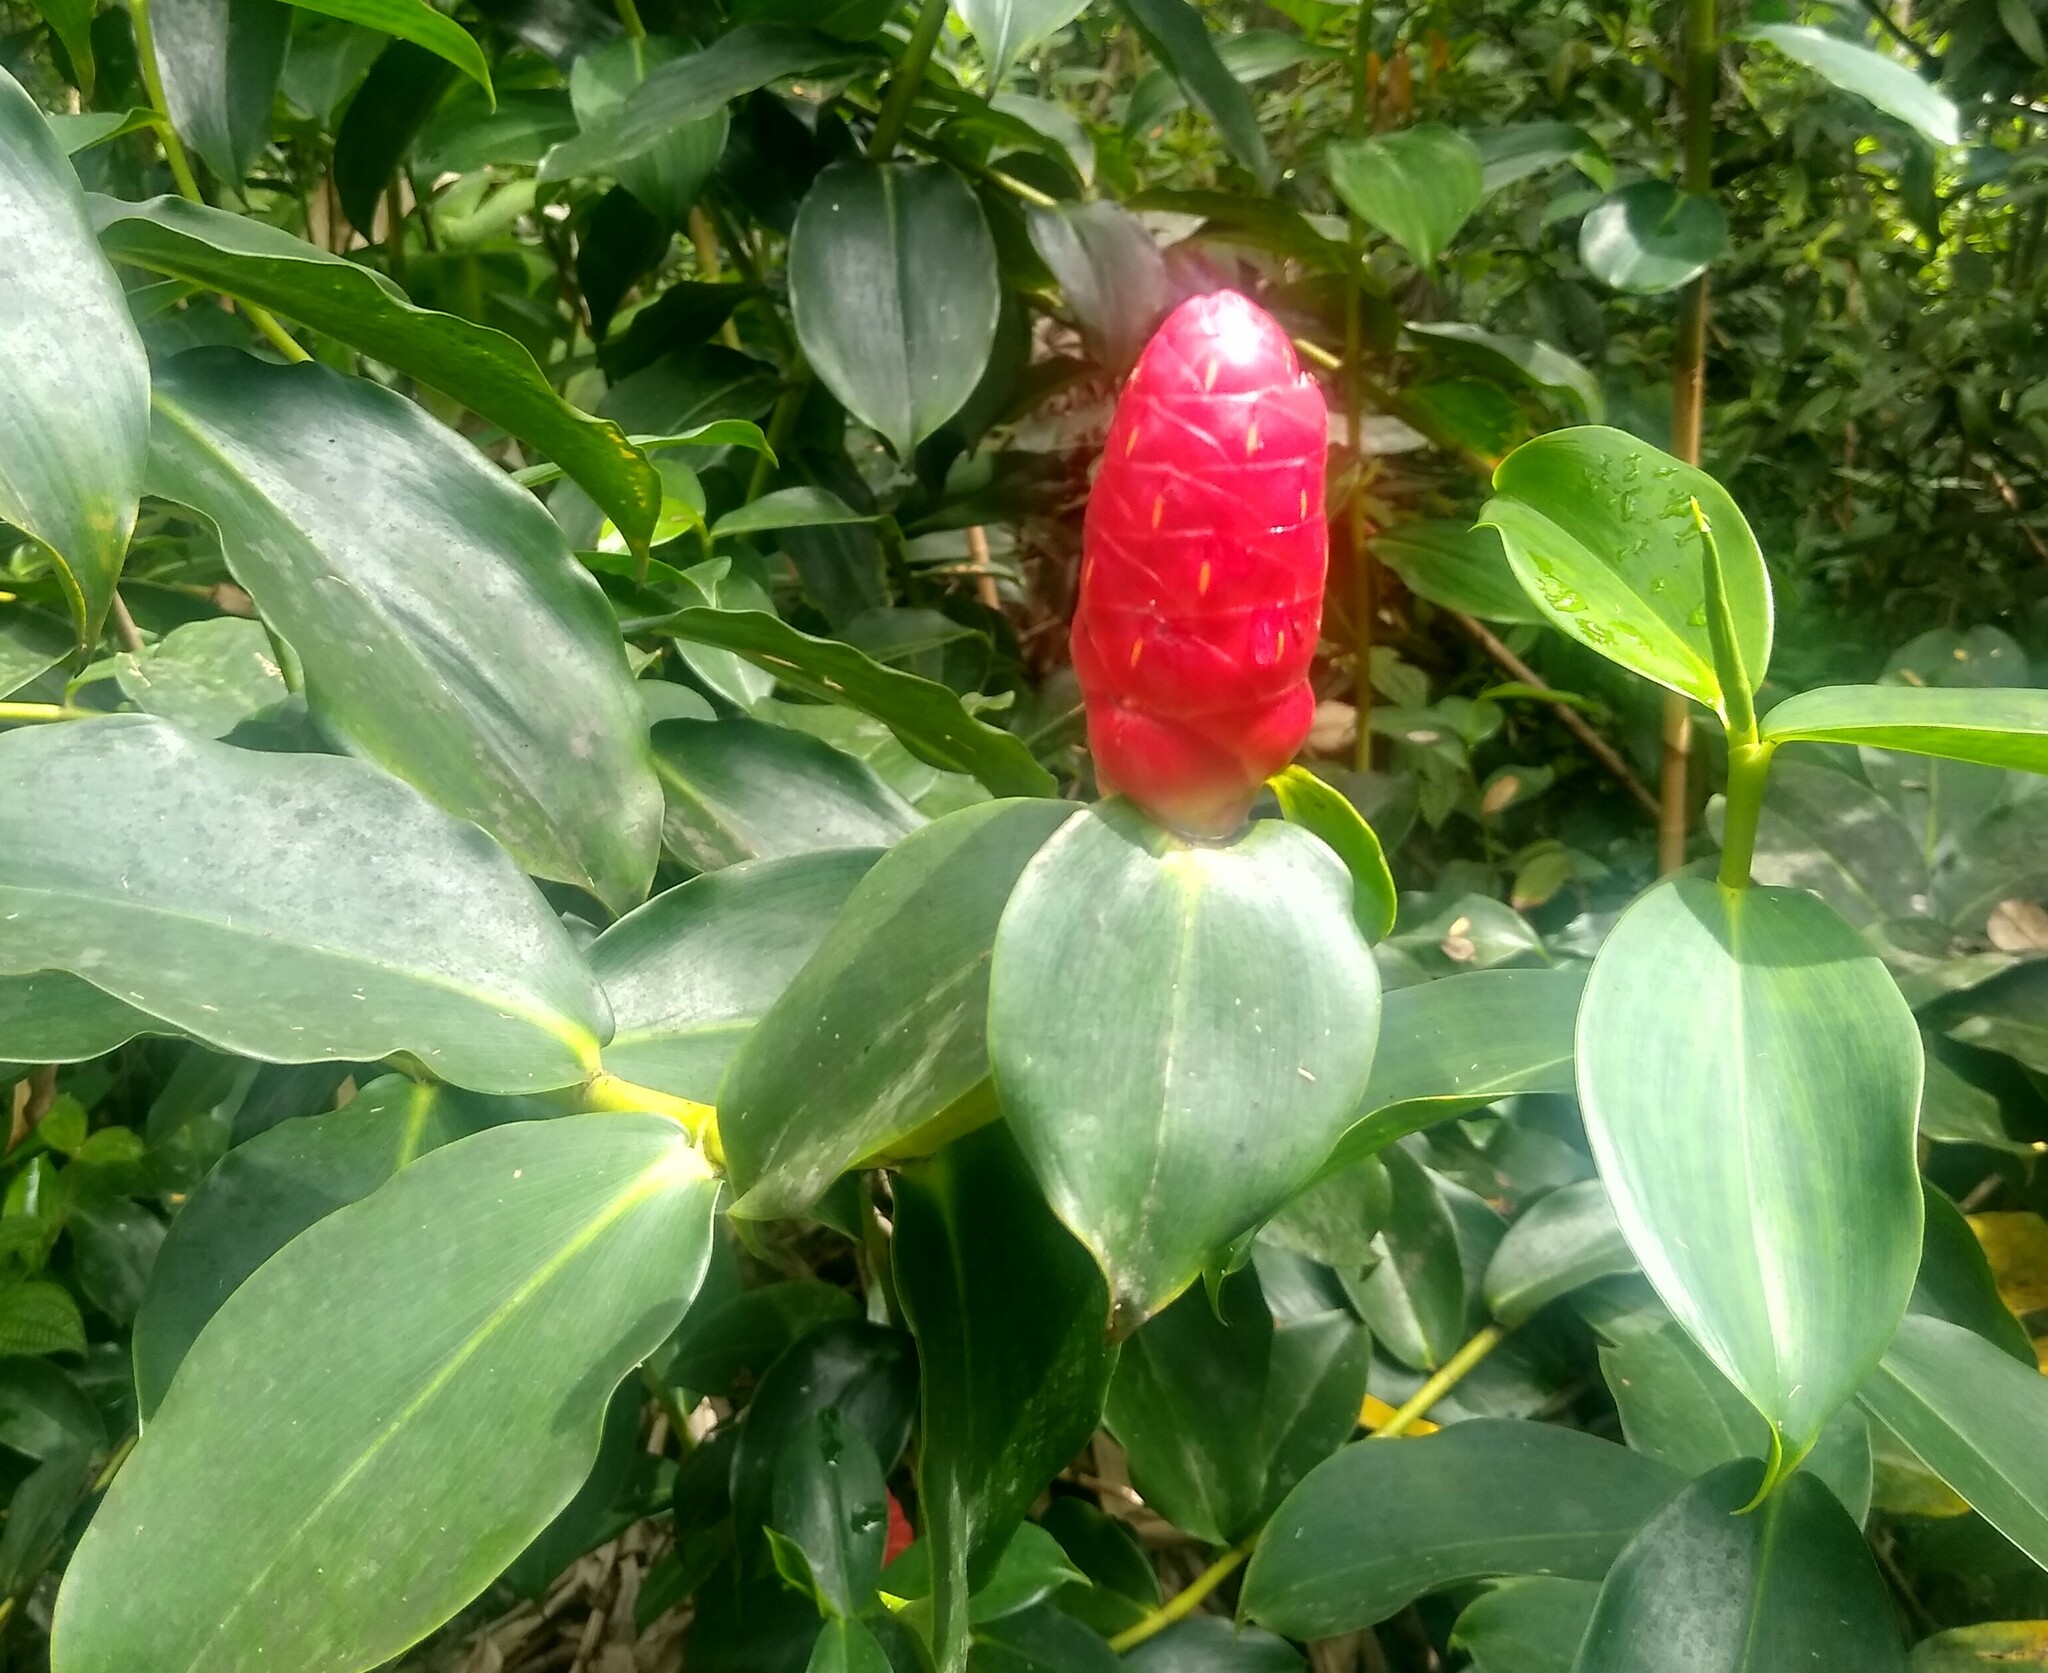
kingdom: Plantae
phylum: Tracheophyta
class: Liliopsida
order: Zingiberales
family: Costaceae
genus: Costus
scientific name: Costus woodsonii
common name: Scarlet spiral-ginger
